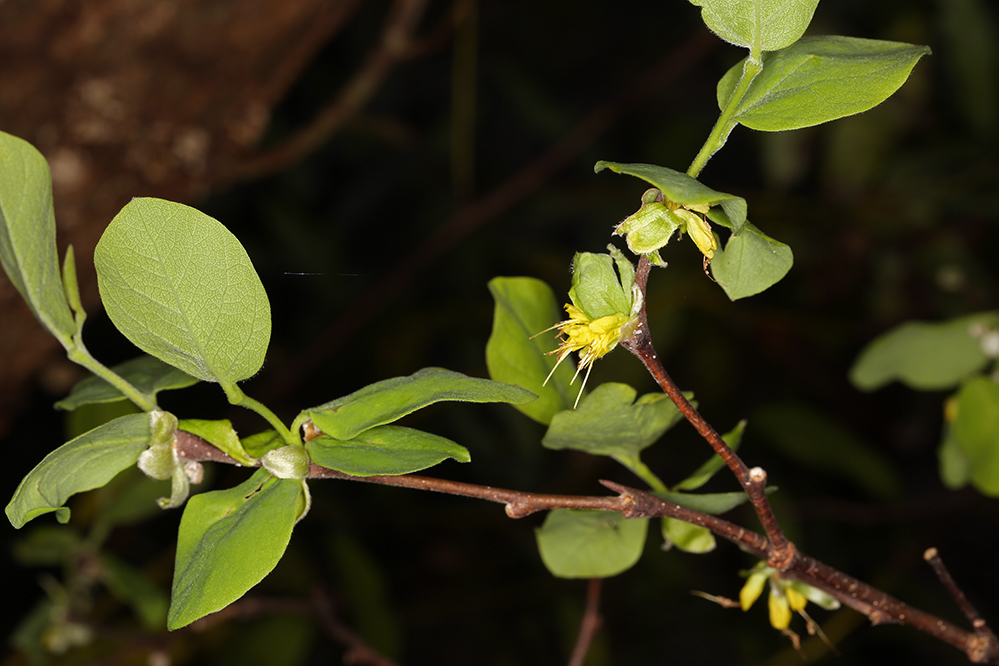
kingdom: Plantae
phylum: Tracheophyta
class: Magnoliopsida
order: Malvales
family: Thymelaeaceae
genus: Dirca
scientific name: Dirca occidentalis
